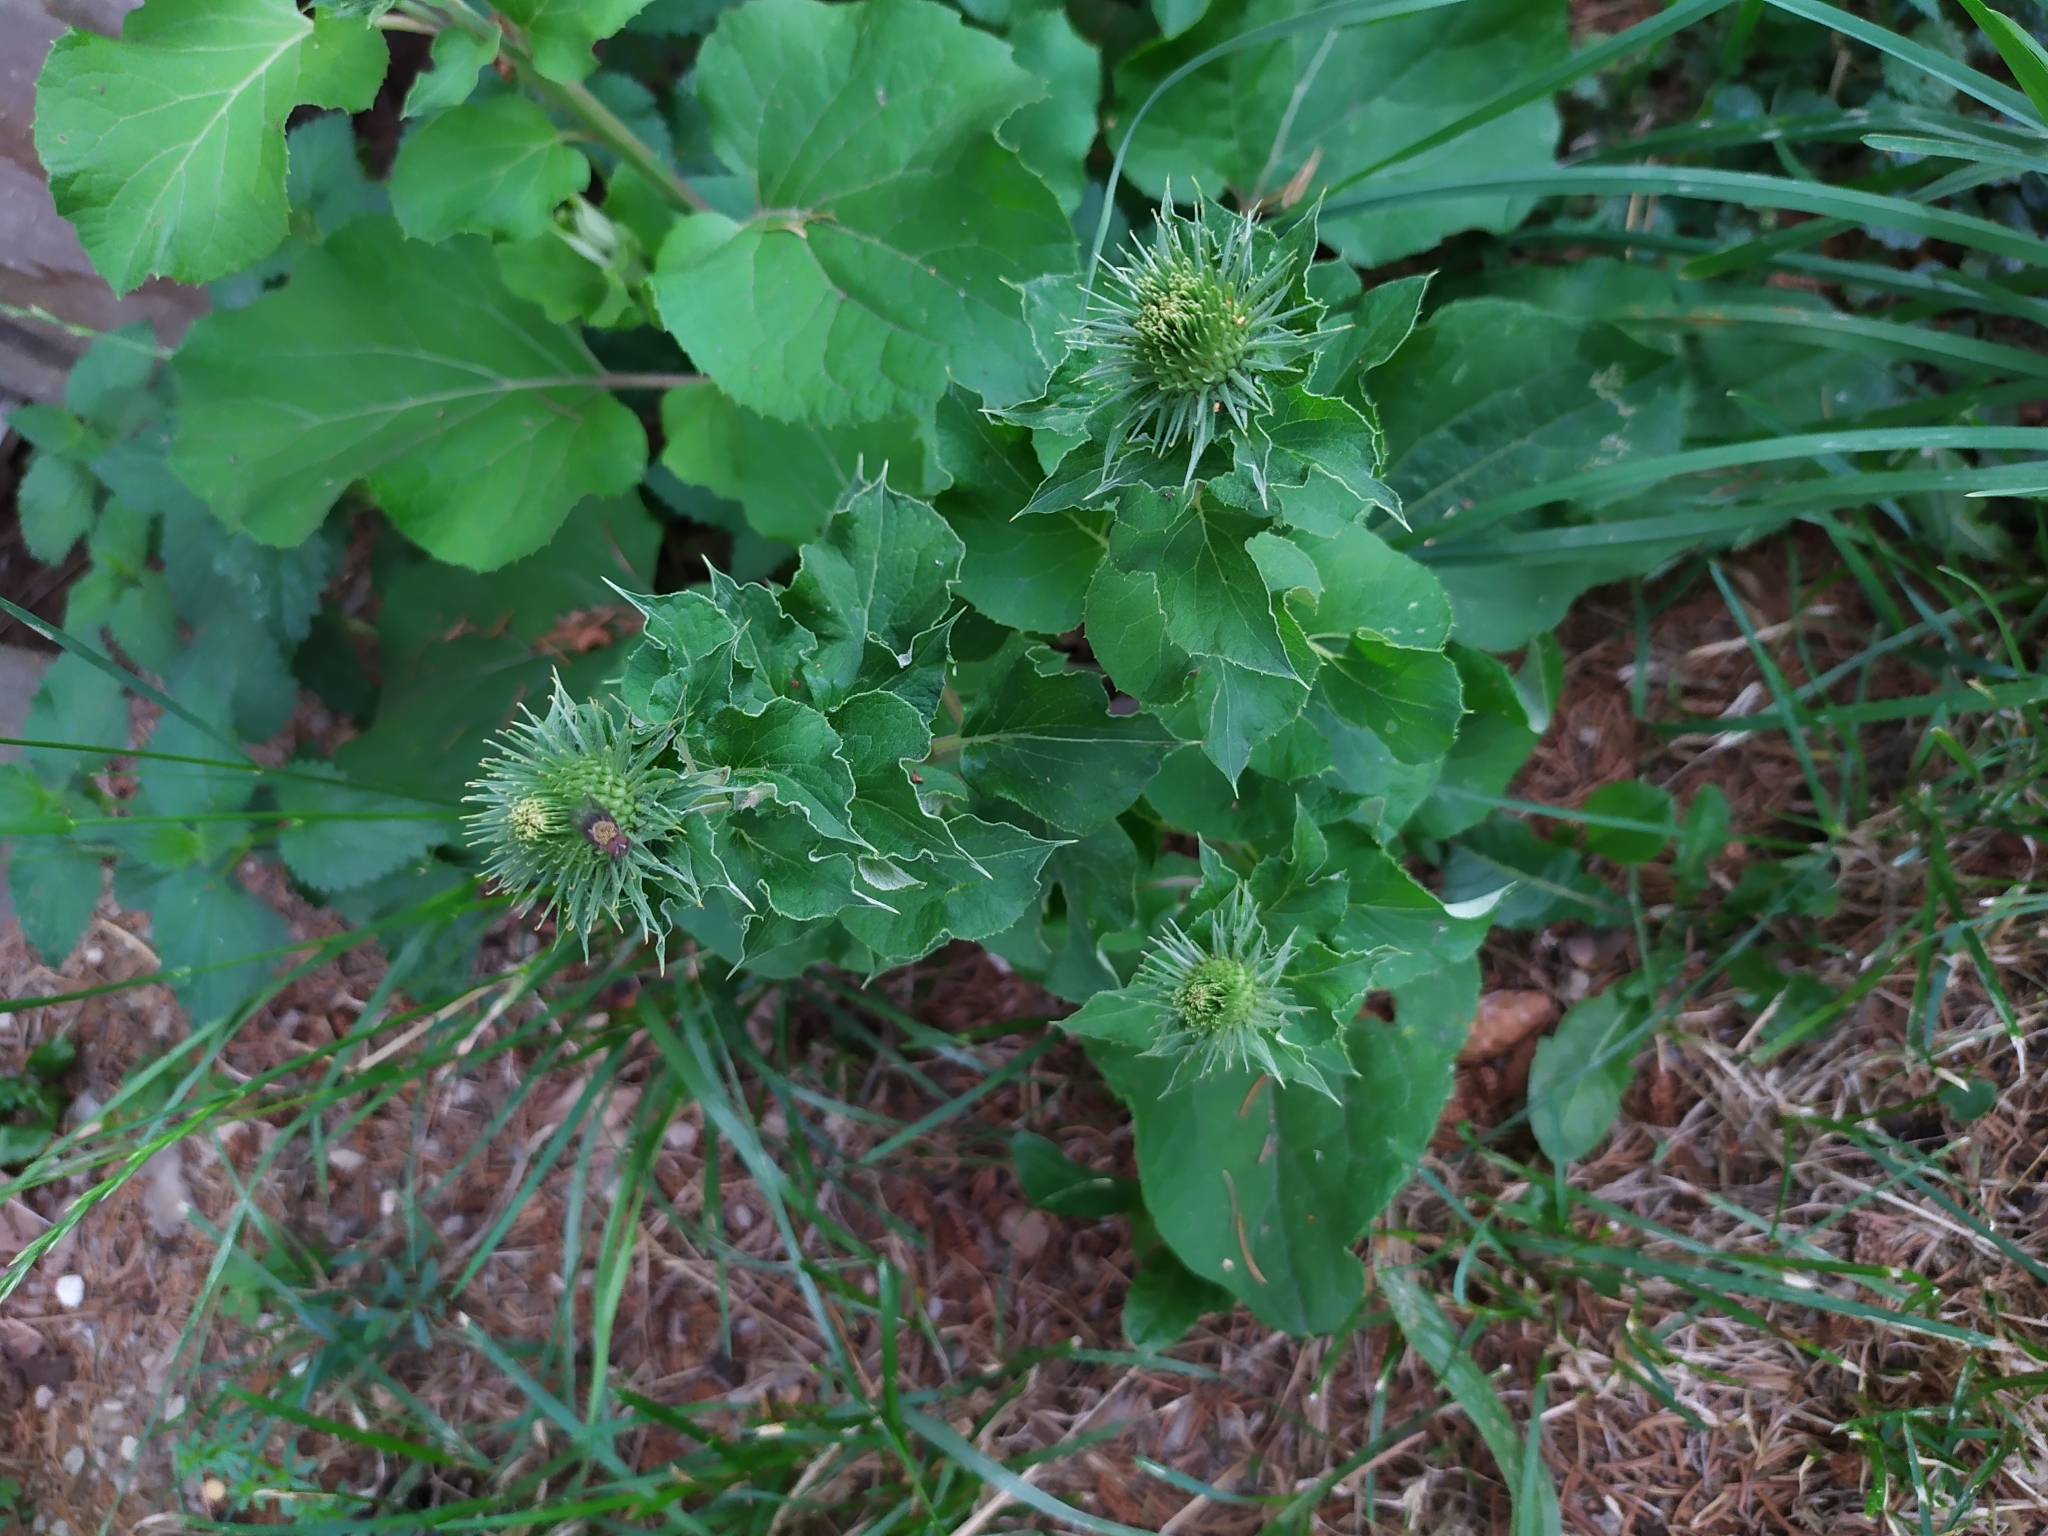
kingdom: Plantae
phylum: Tracheophyta
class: Magnoliopsida
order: Asterales
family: Asteraceae
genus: Arctium
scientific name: Arctium lappa
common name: Greater burdock
